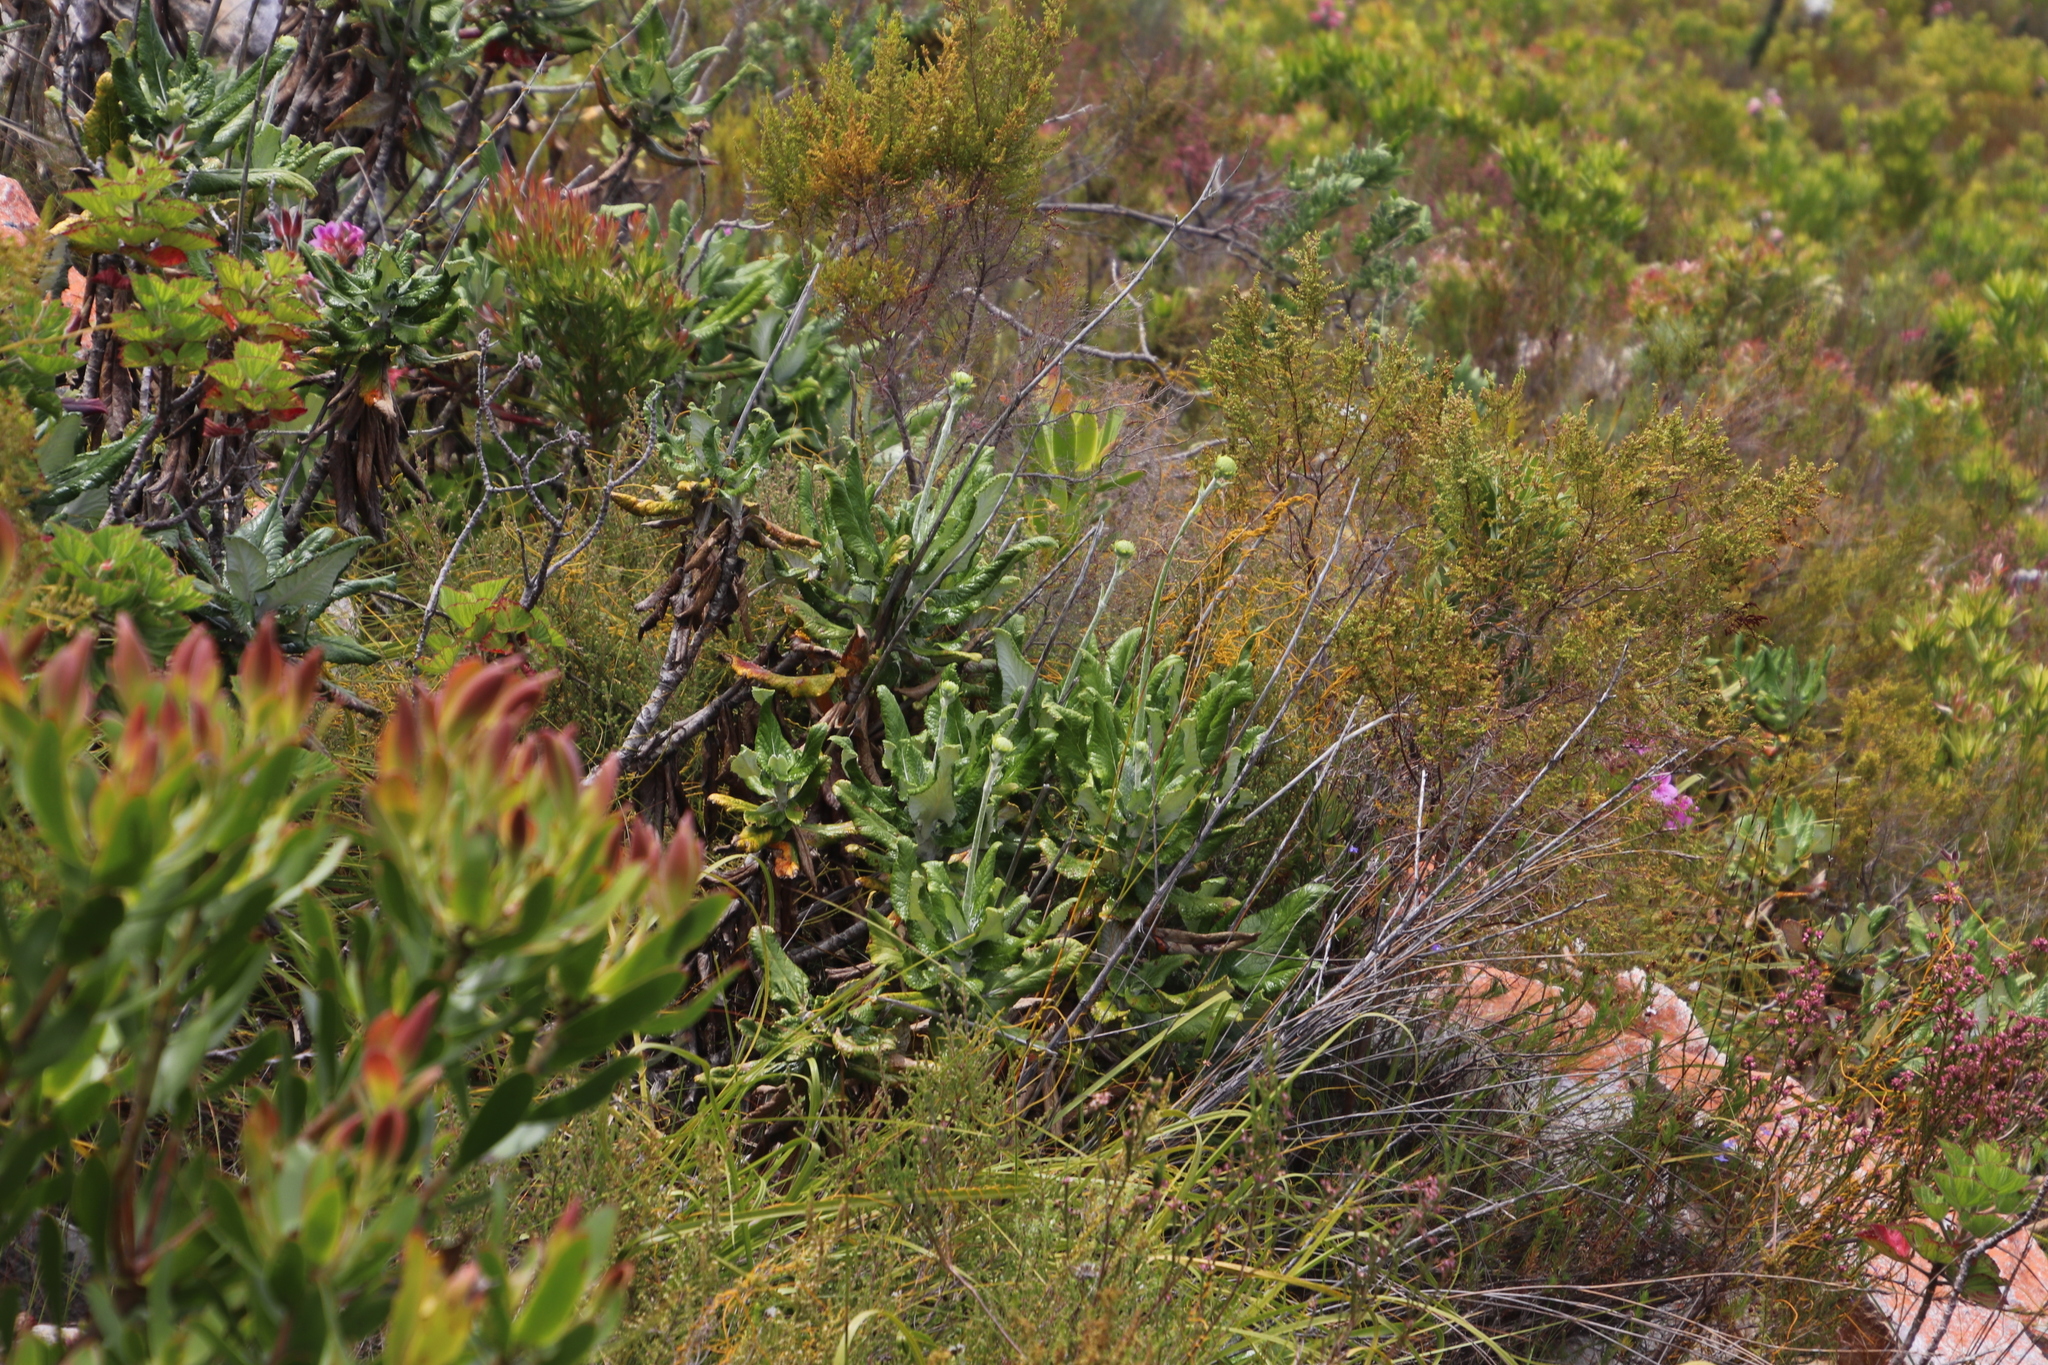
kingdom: Plantae
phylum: Tracheophyta
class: Magnoliopsida
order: Apiales
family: Apiaceae
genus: Hermas
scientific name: Hermas villosa
